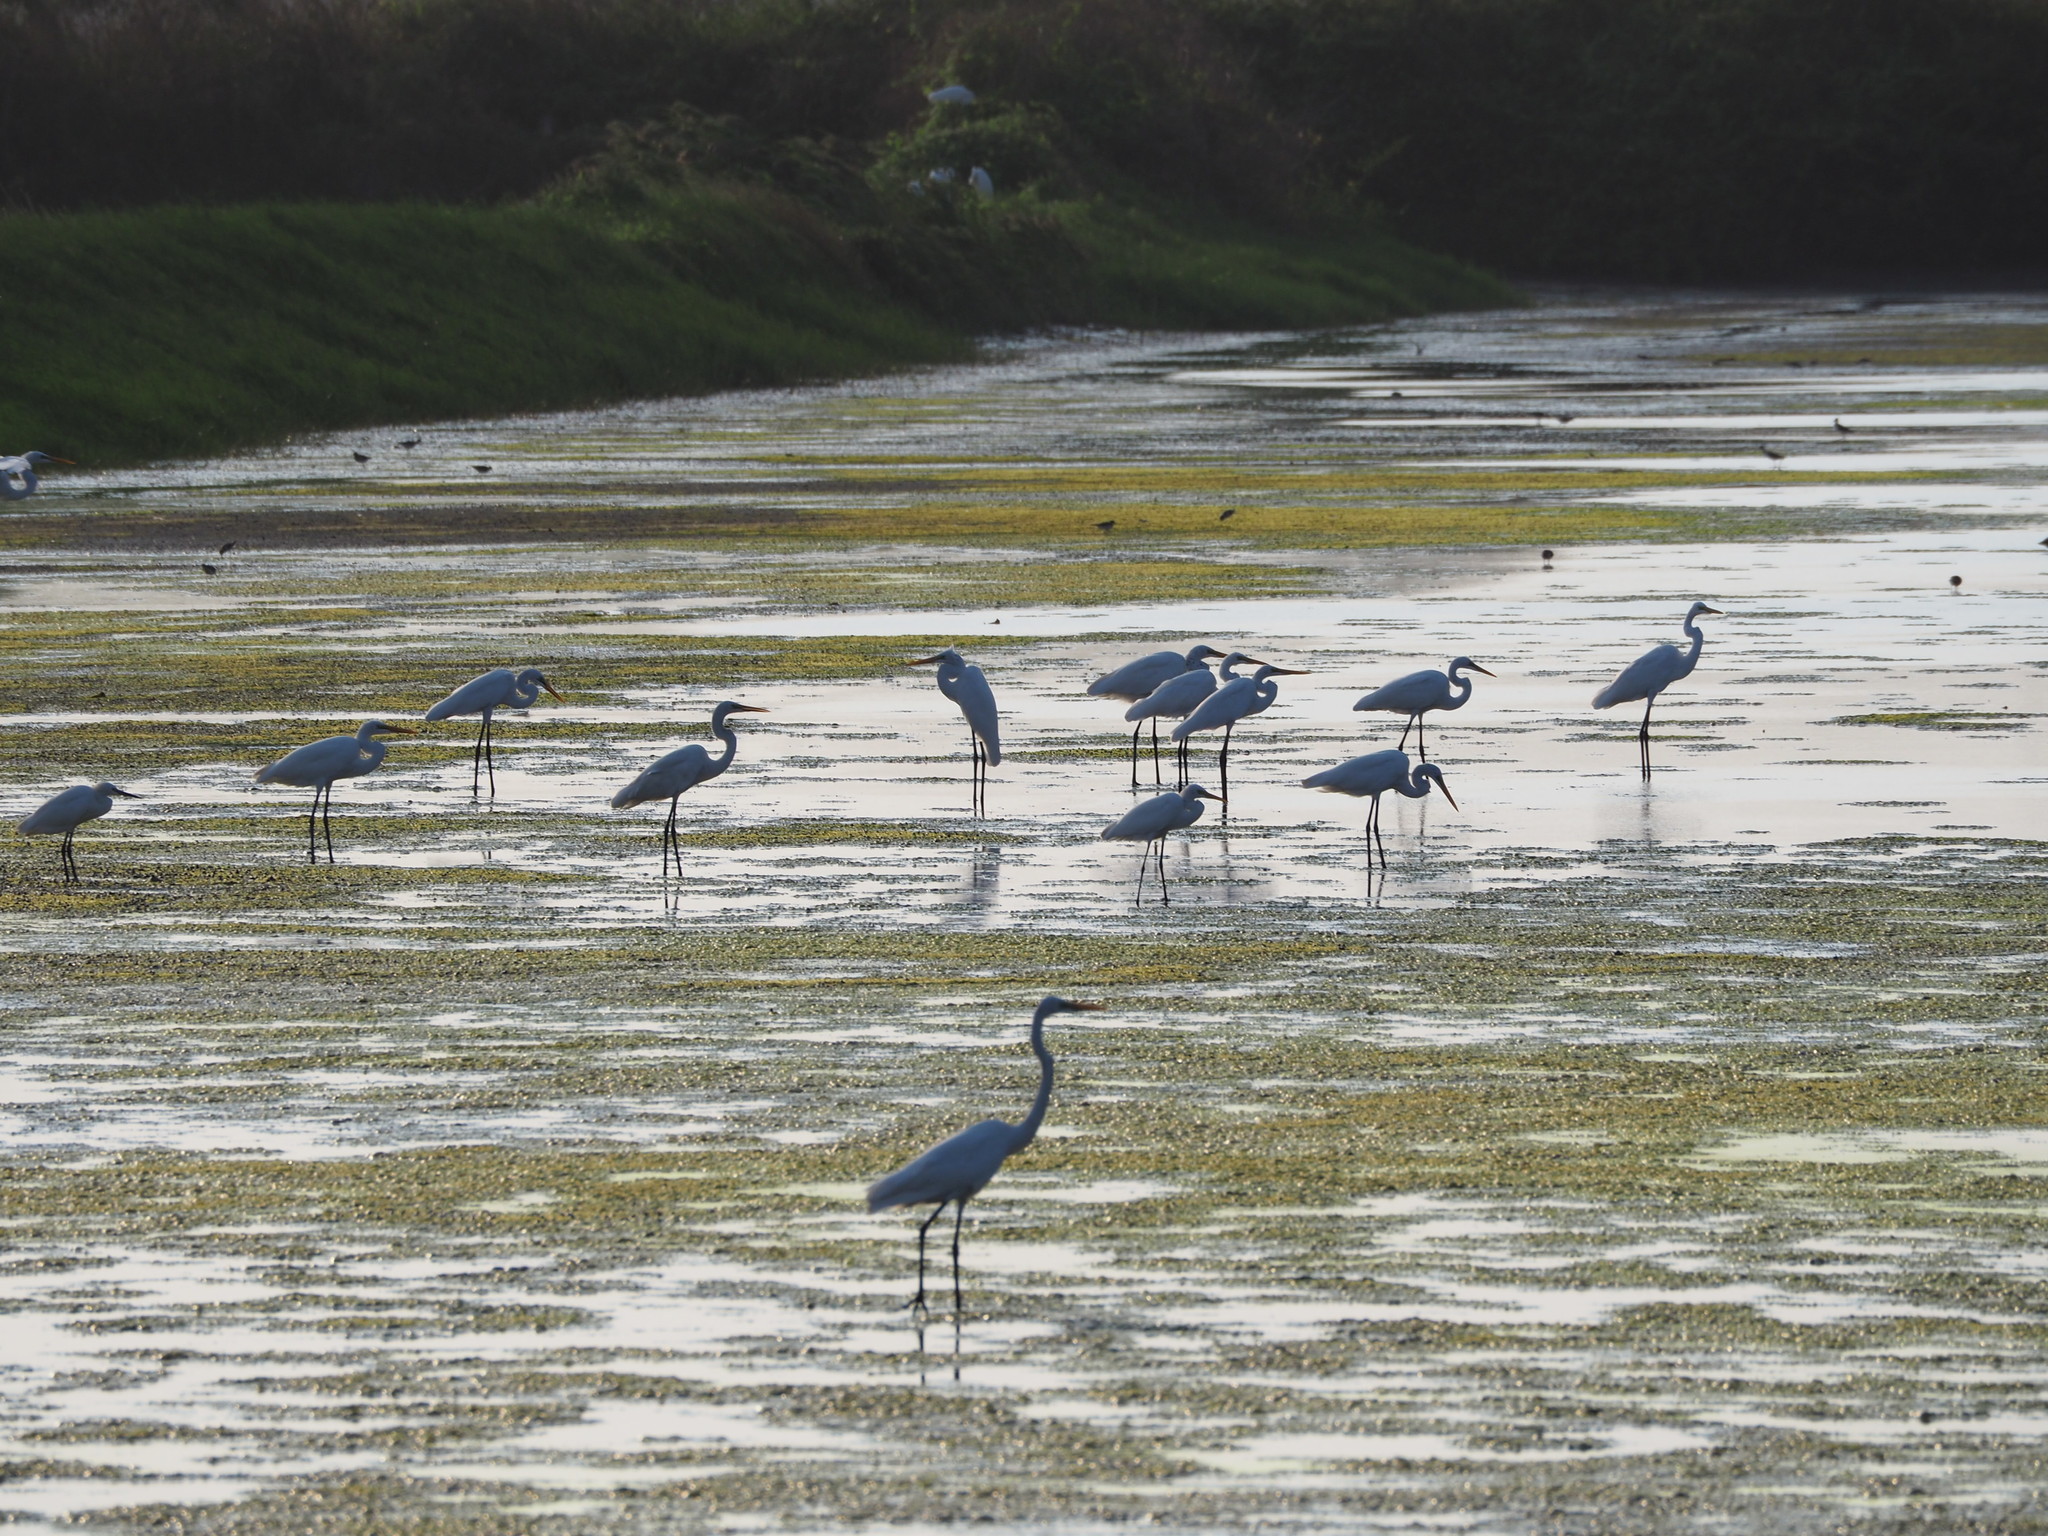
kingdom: Animalia
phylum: Chordata
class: Aves
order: Pelecaniformes
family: Ardeidae
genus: Ardea
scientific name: Ardea alba
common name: Great egret
